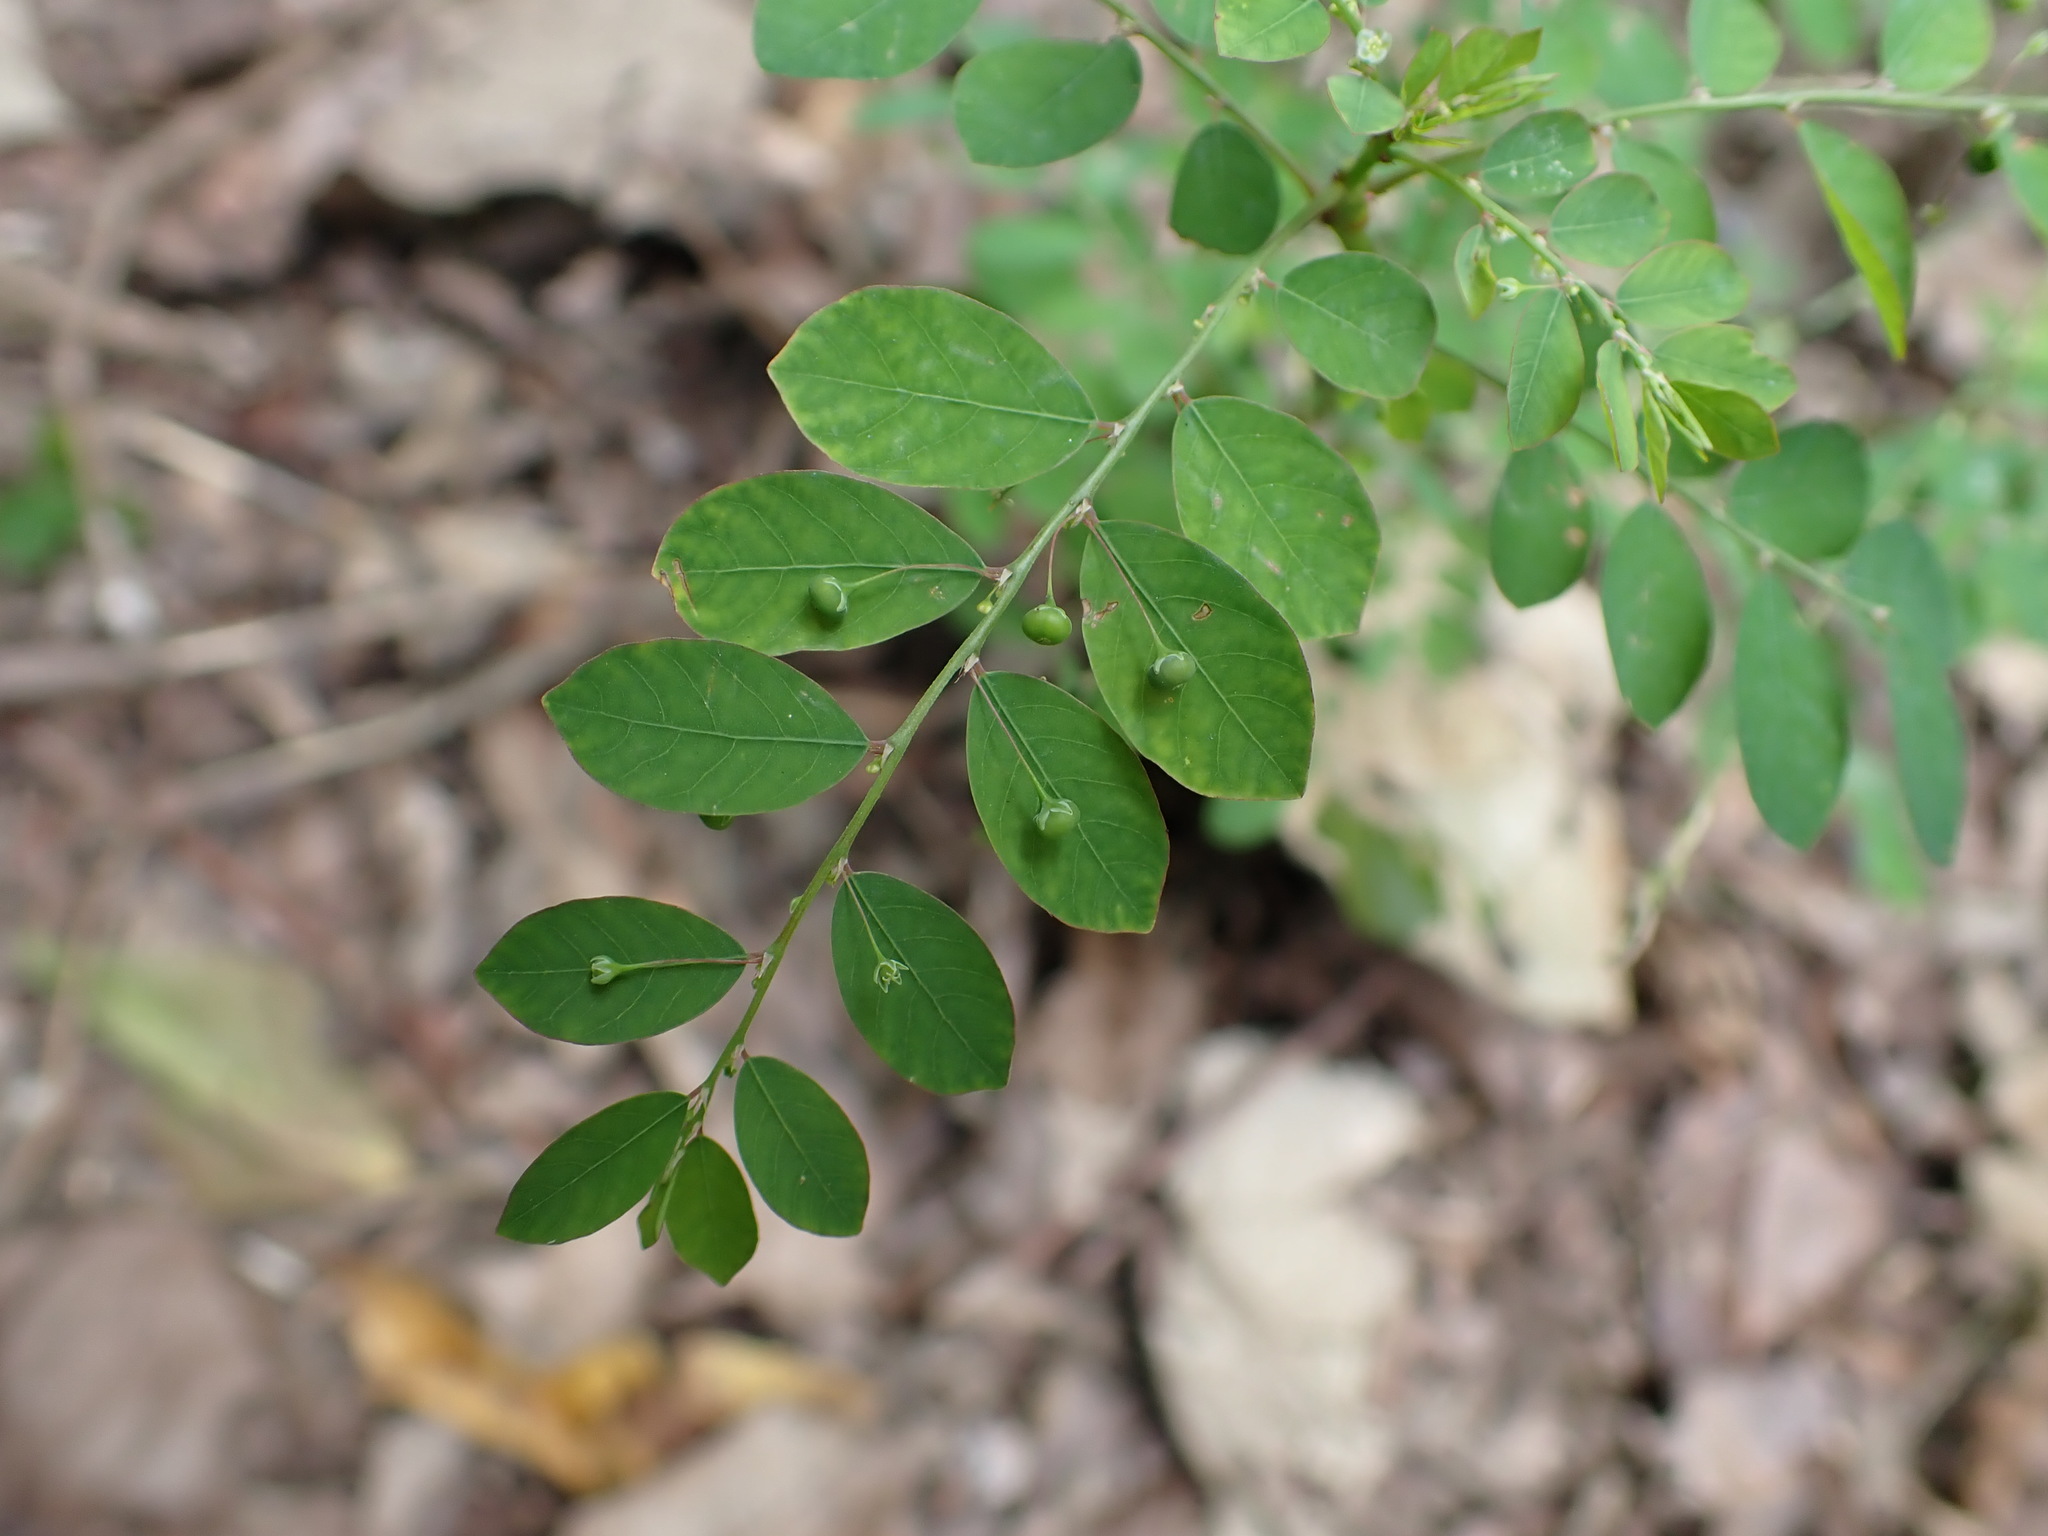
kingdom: Plantae
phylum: Tracheophyta
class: Magnoliopsida
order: Malpighiales
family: Phyllanthaceae
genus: Phyllanthus
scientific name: Phyllanthus tenellus
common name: Mascarene island leaf-flower
